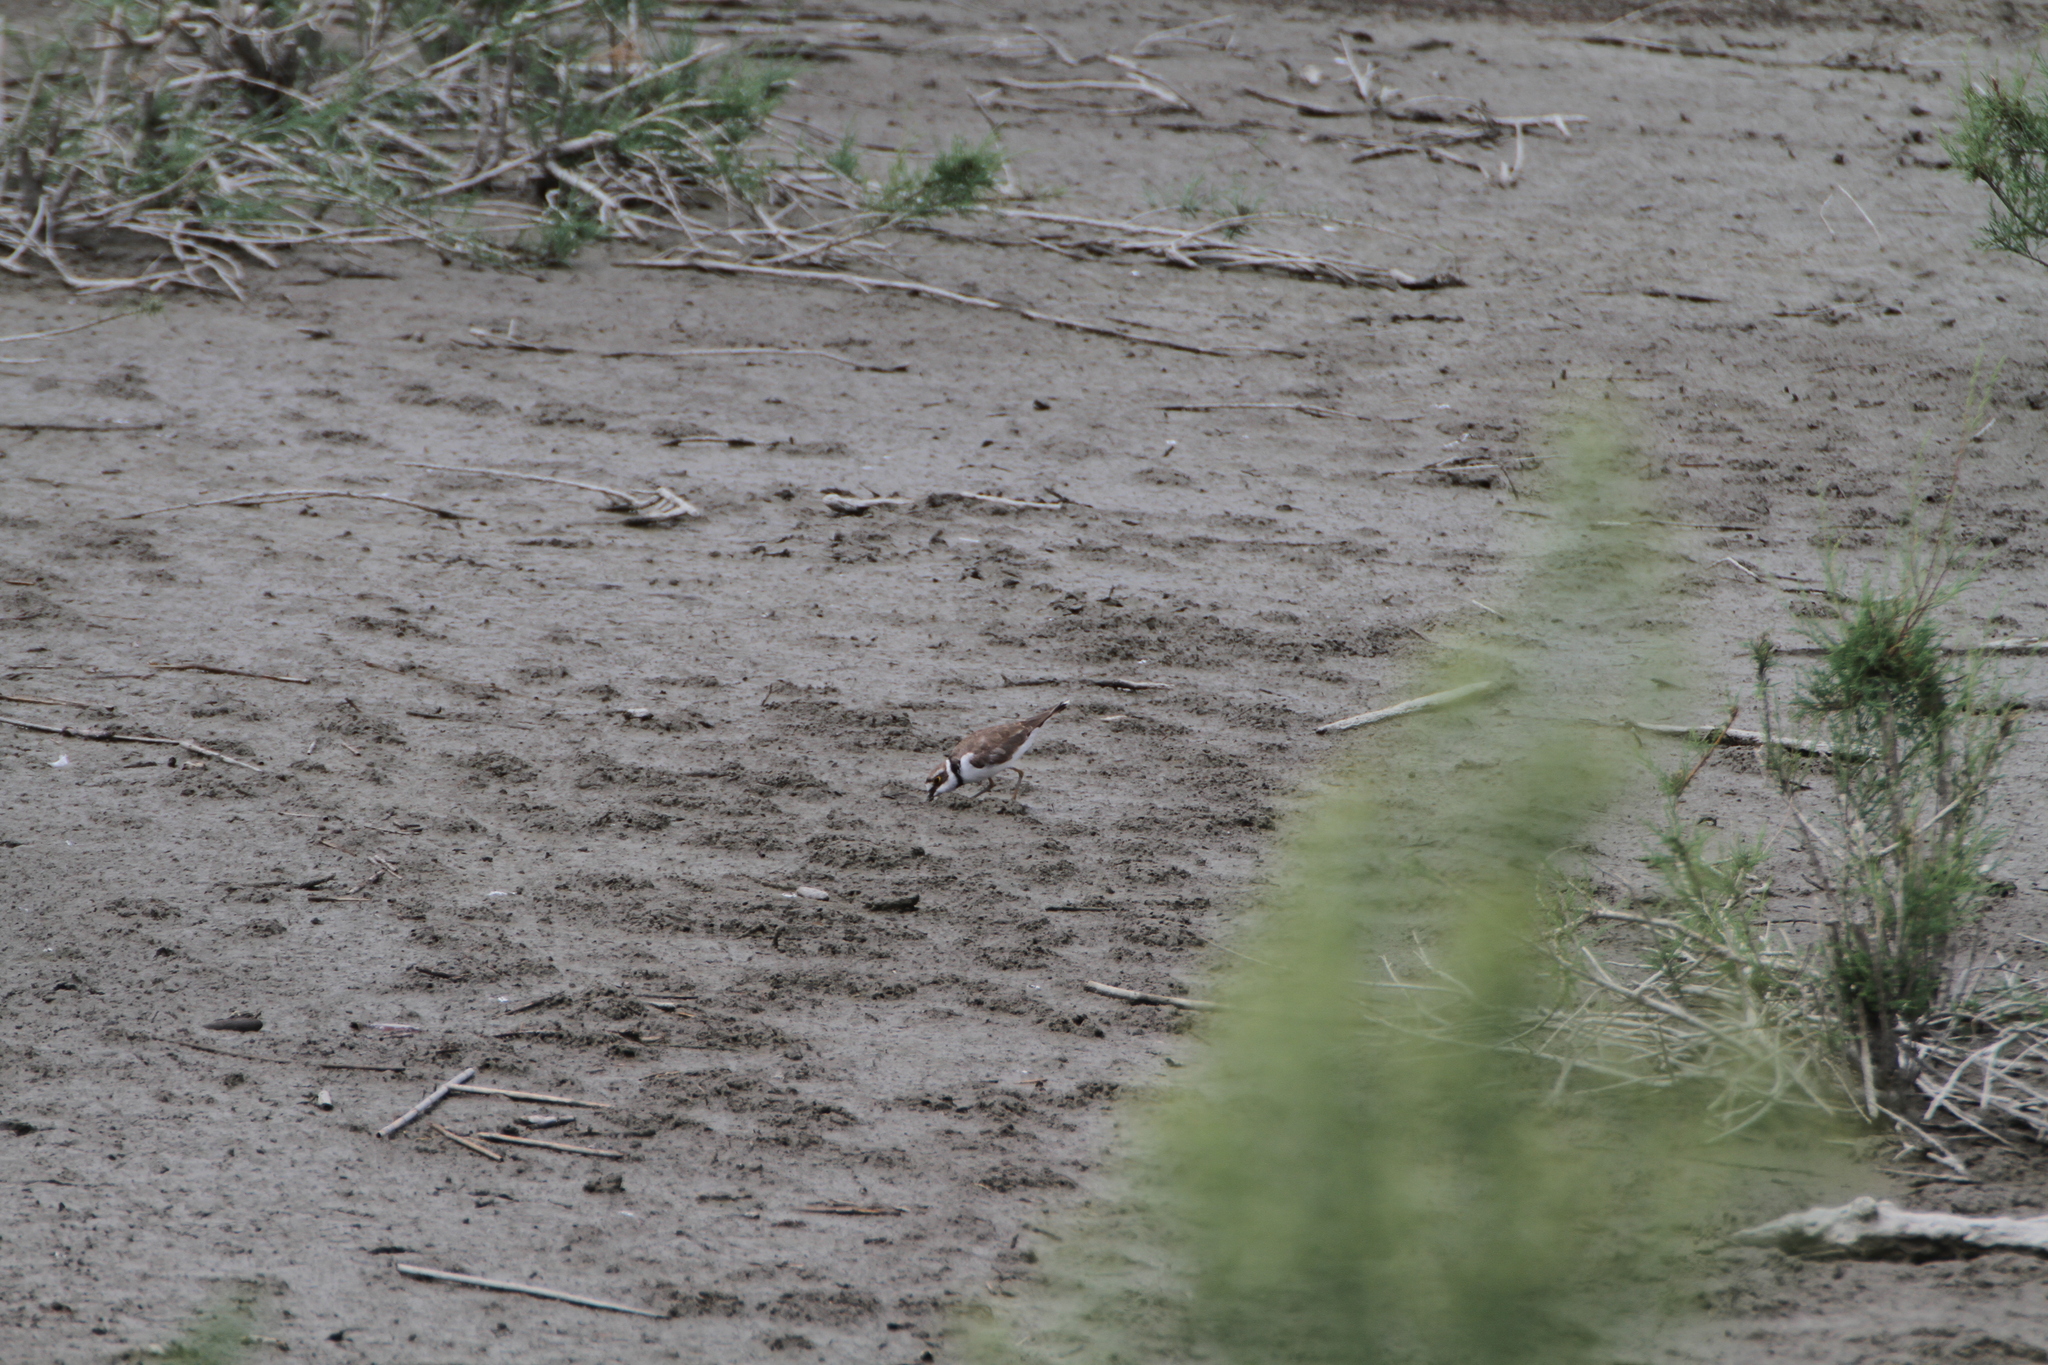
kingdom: Animalia
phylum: Chordata
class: Aves
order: Charadriiformes
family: Charadriidae
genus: Charadrius
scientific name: Charadrius dubius
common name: Little ringed plover
